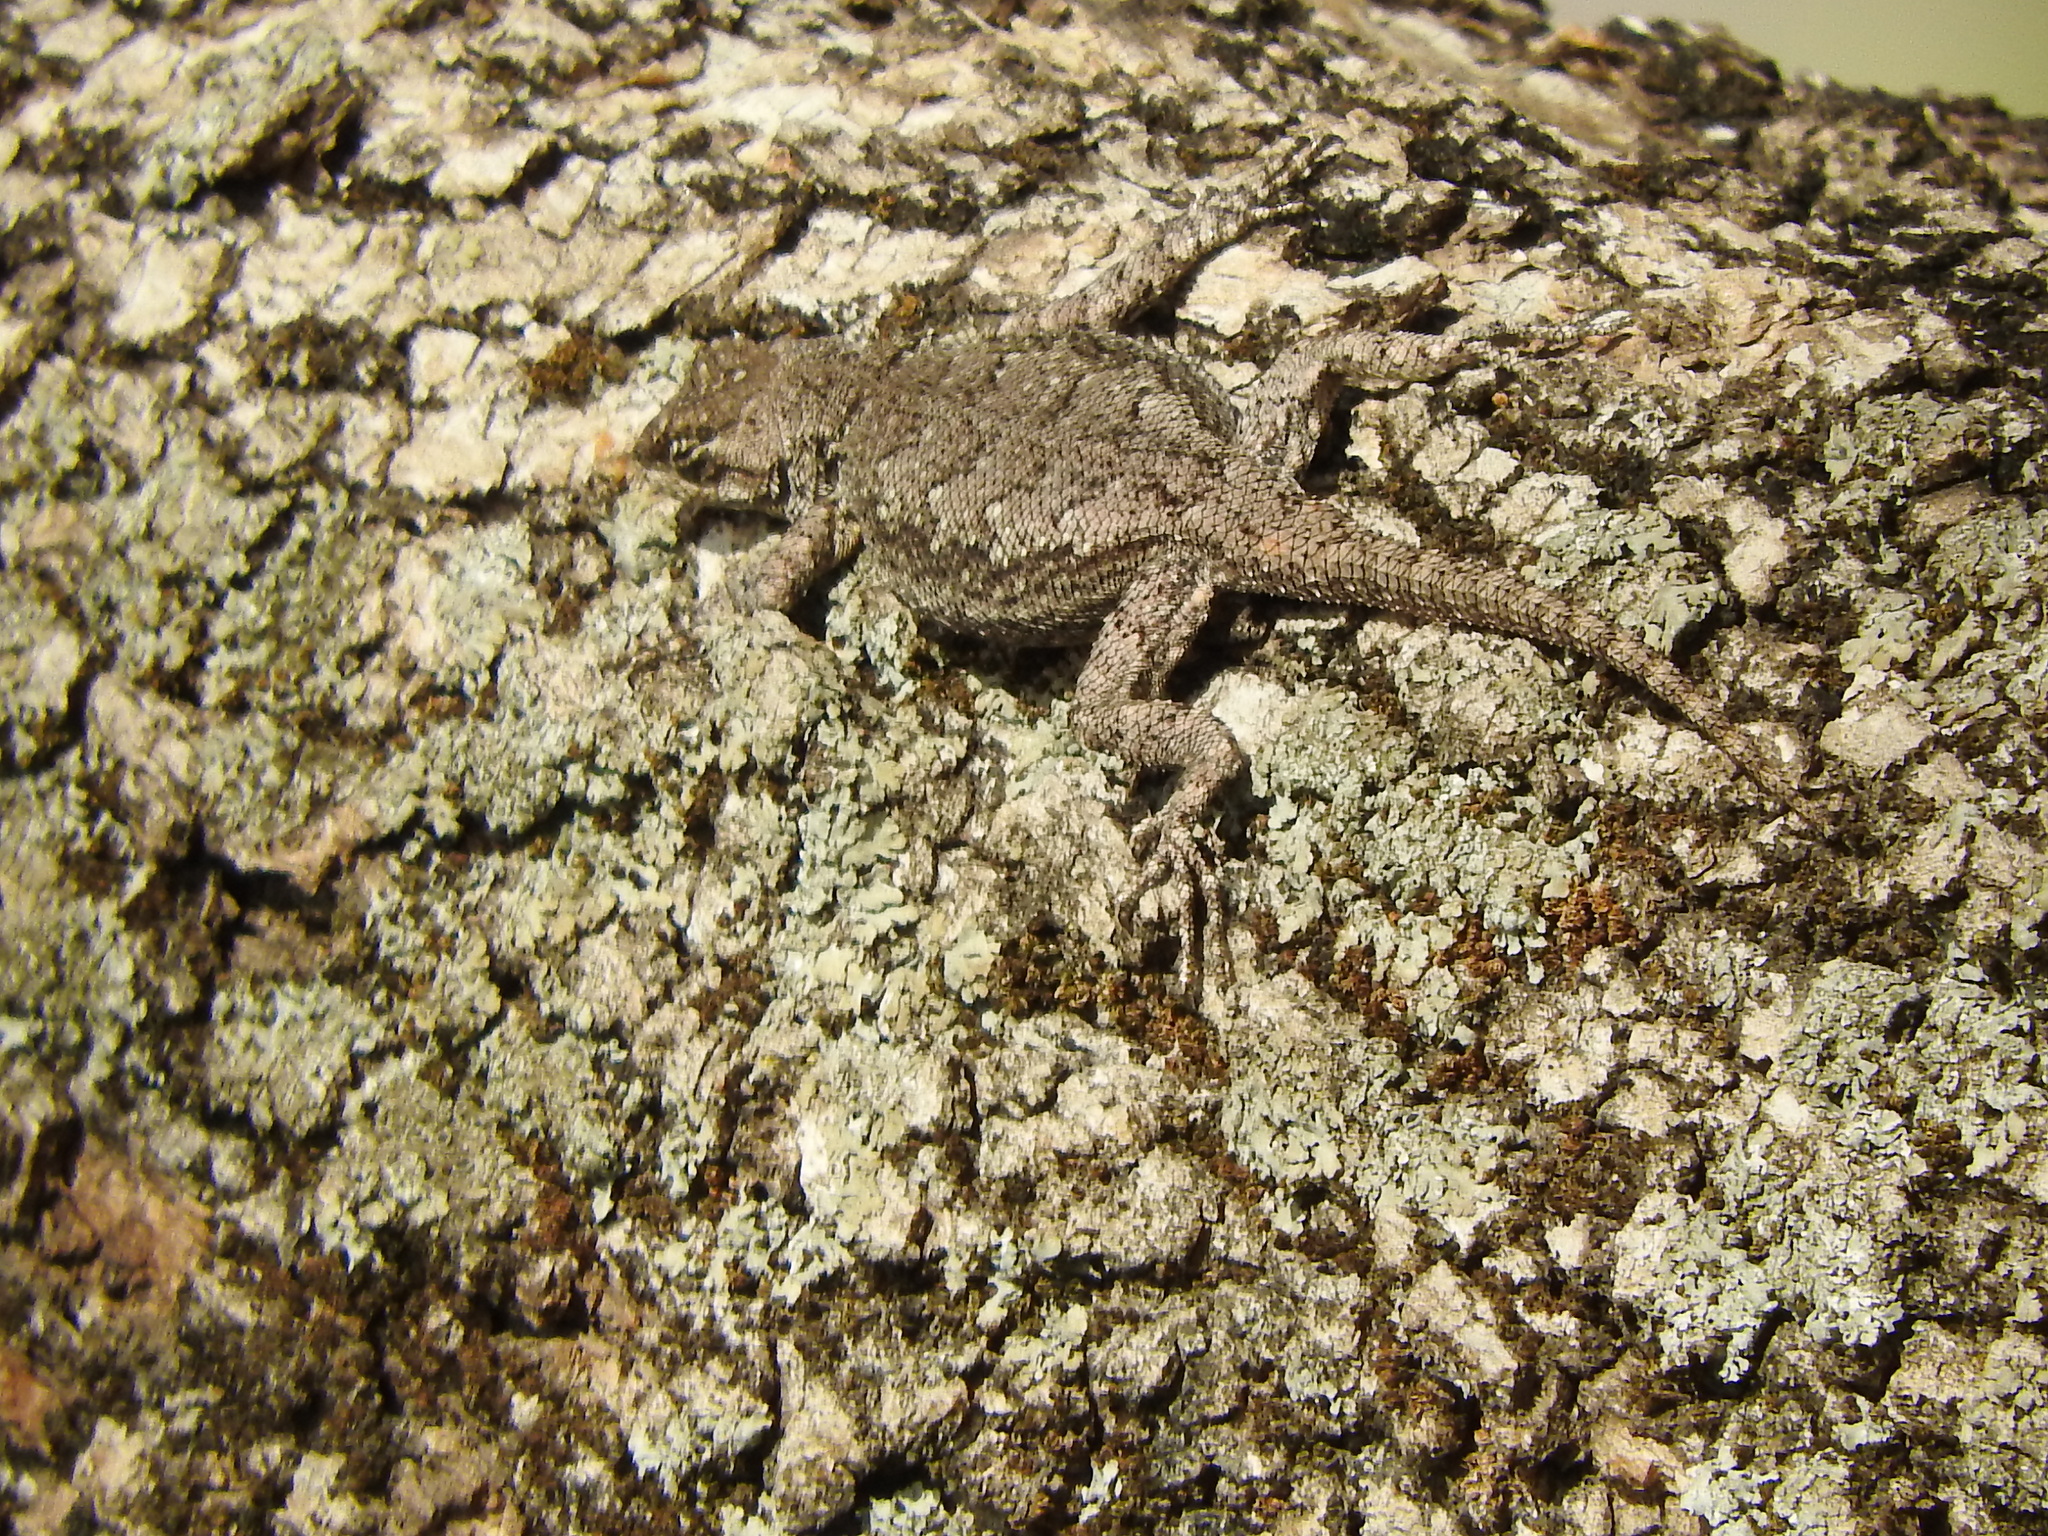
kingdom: Animalia
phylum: Chordata
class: Squamata
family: Phrynosomatidae
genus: Sceloporus
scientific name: Sceloporus grammicus
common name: Mesquite lizard
